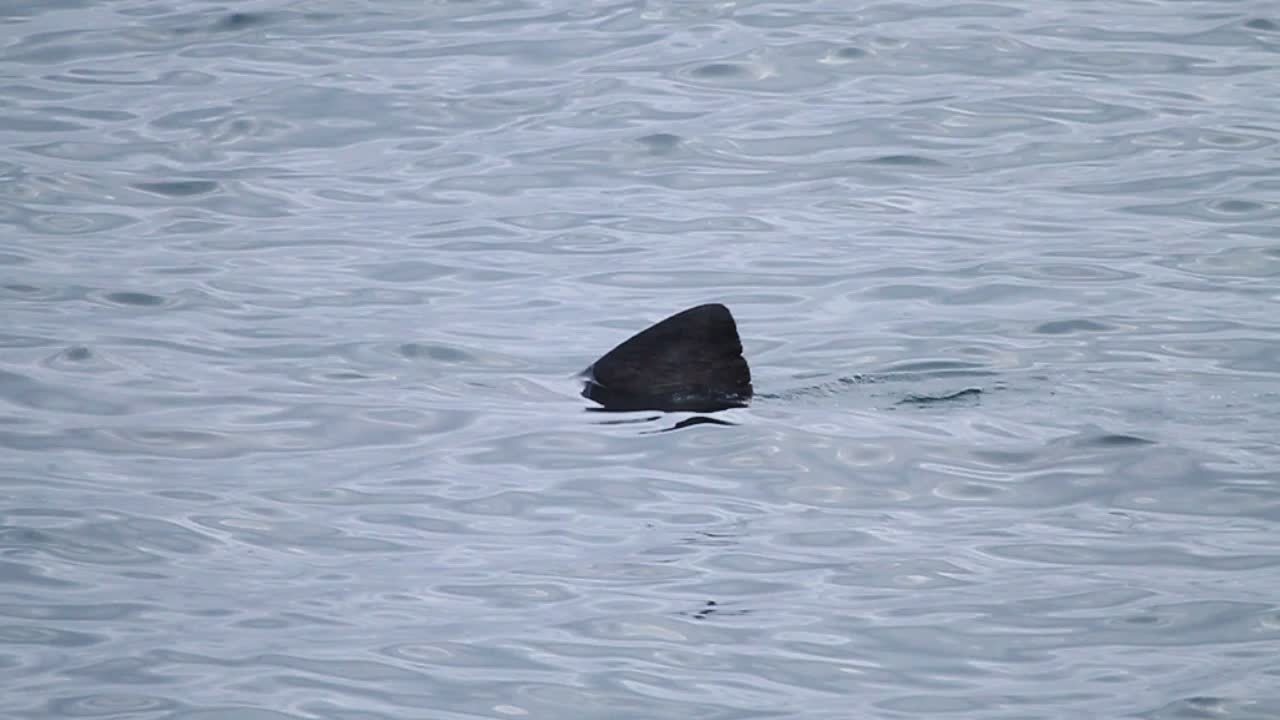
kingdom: Animalia
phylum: Chordata
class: Elasmobranchii
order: Lamniformes
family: Cetorhinidae
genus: Cetorhinus
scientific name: Cetorhinus maximus
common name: Basking shark
